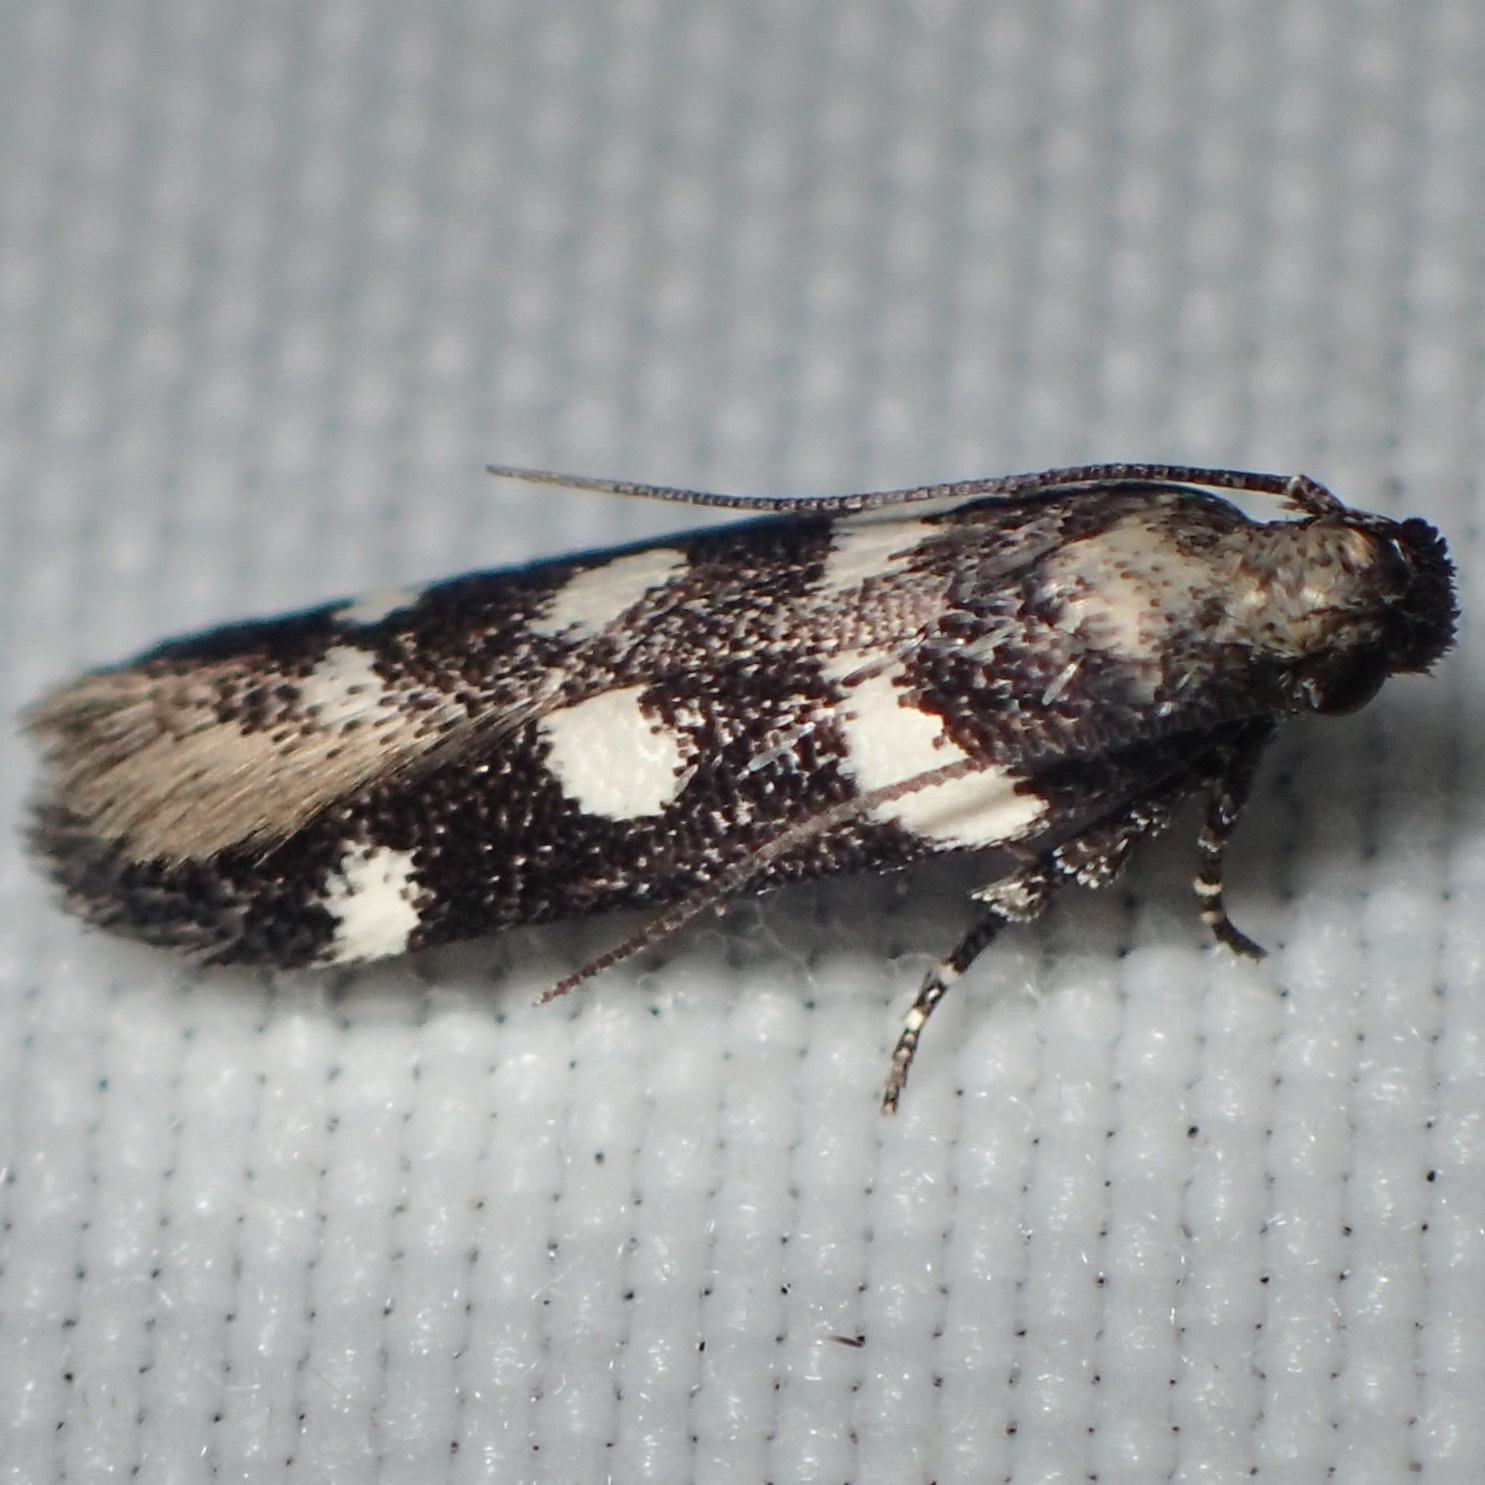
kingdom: Animalia
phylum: Arthropoda
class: Insecta
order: Lepidoptera
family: Gelechiidae
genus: Filatima
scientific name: Filatima arizonella
